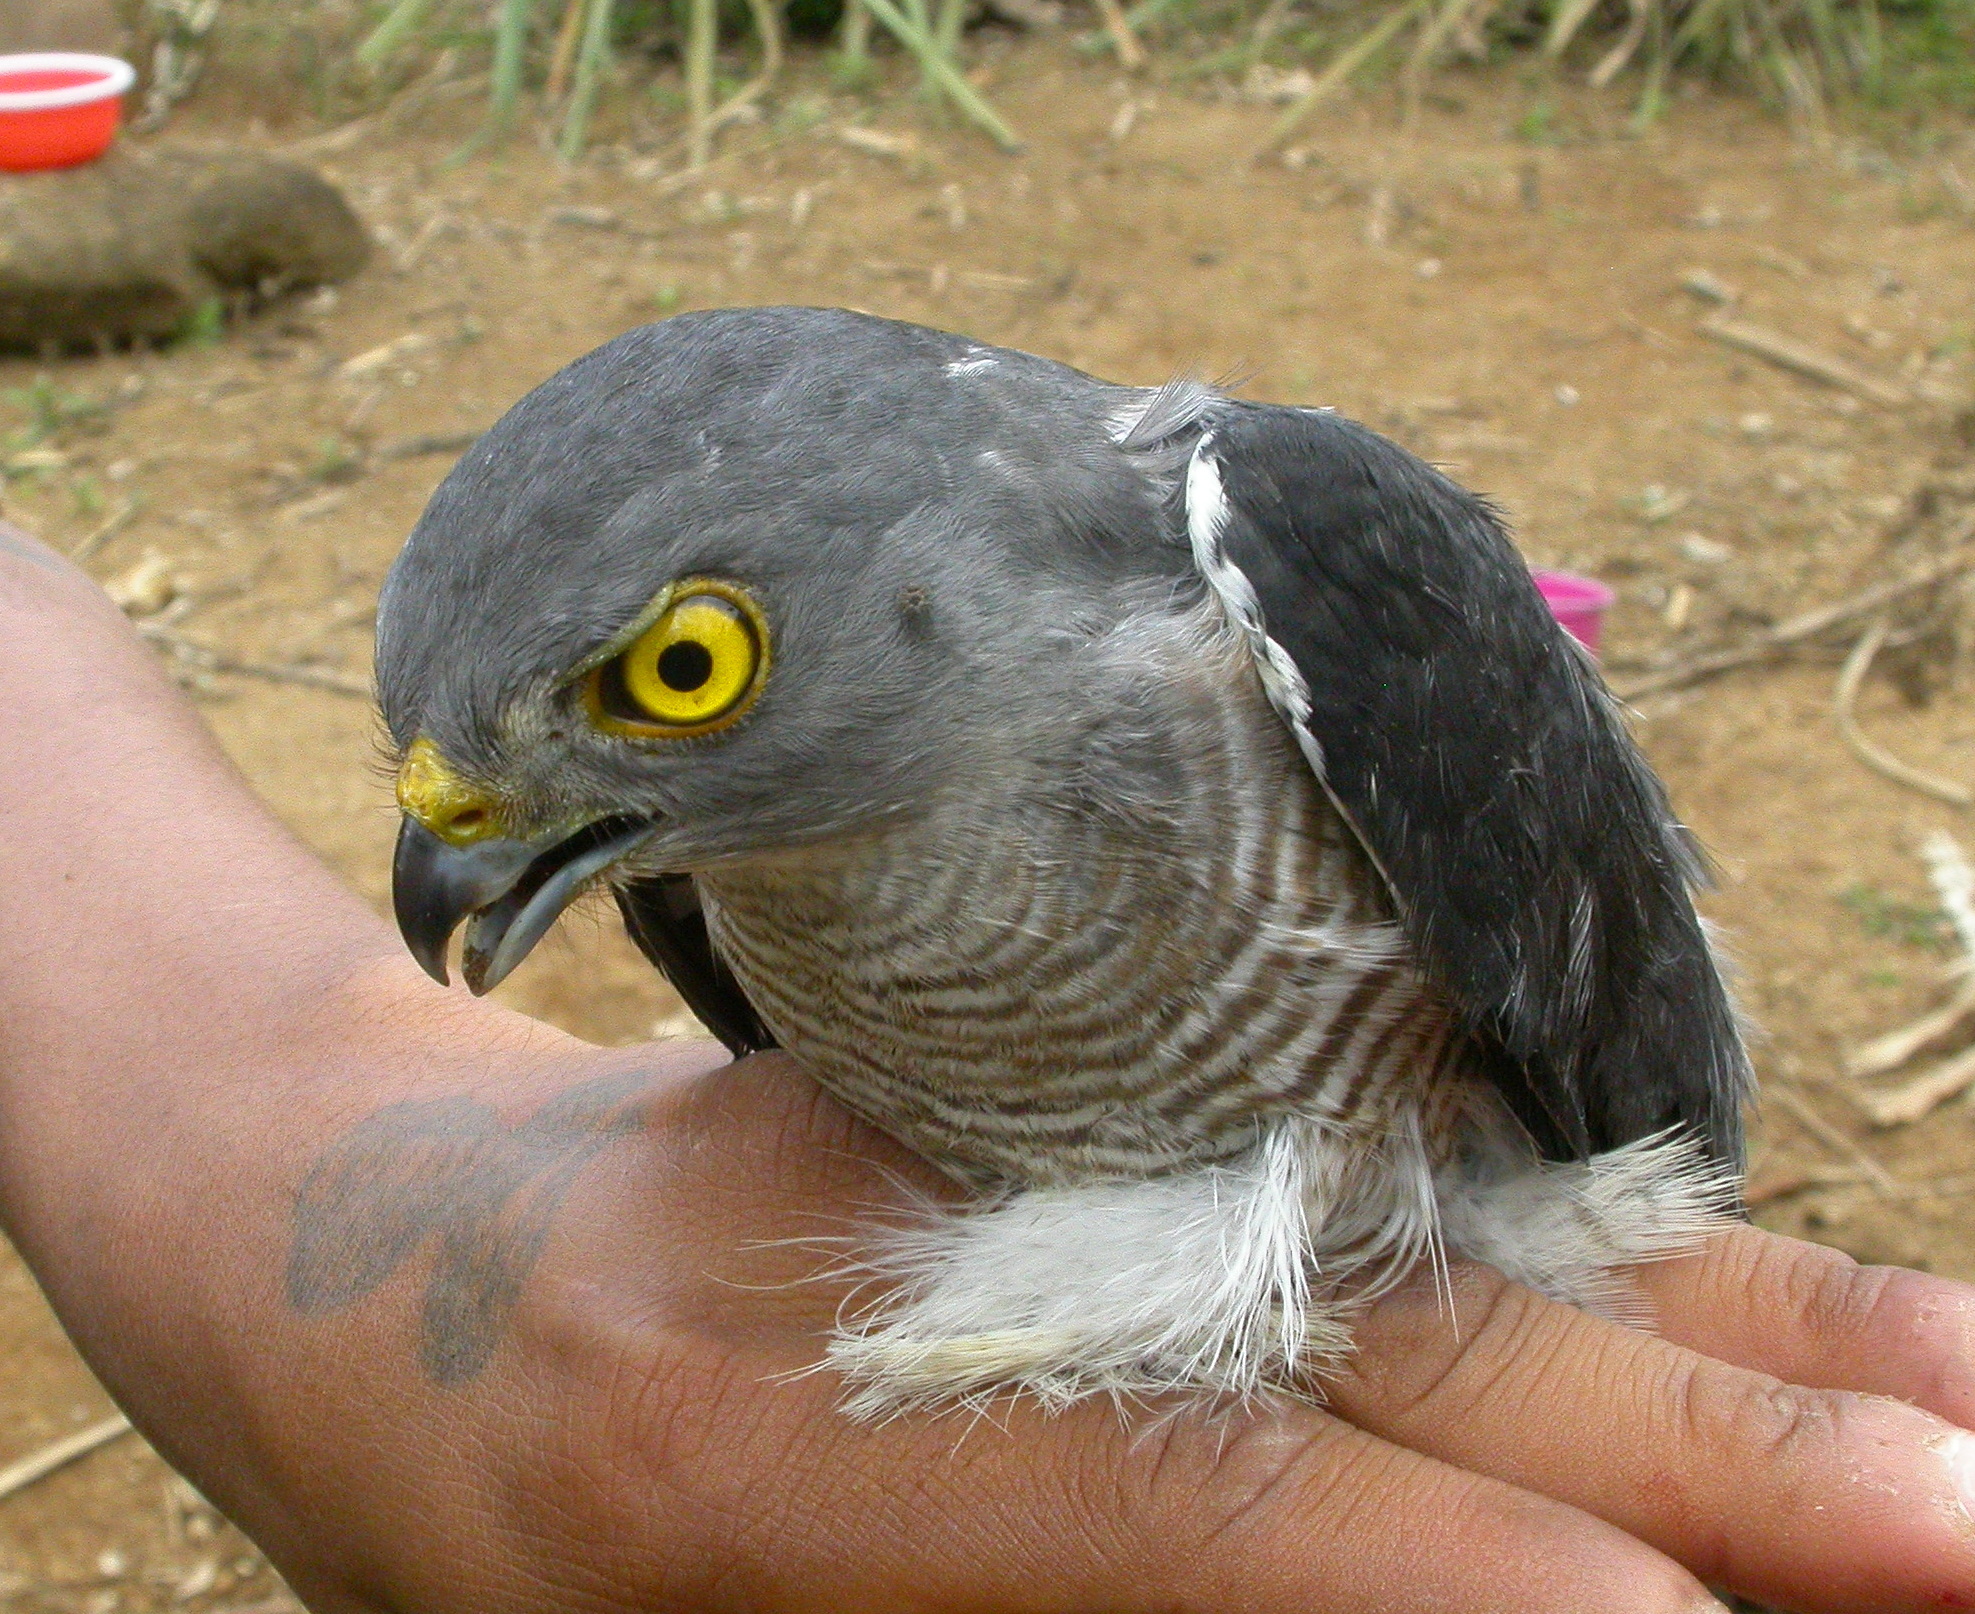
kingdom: Animalia
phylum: Chordata
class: Aves
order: Accipitriformes
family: Accipitridae
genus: Accipiter
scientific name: Accipiter francesiae
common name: Frances's sparrowhawk
